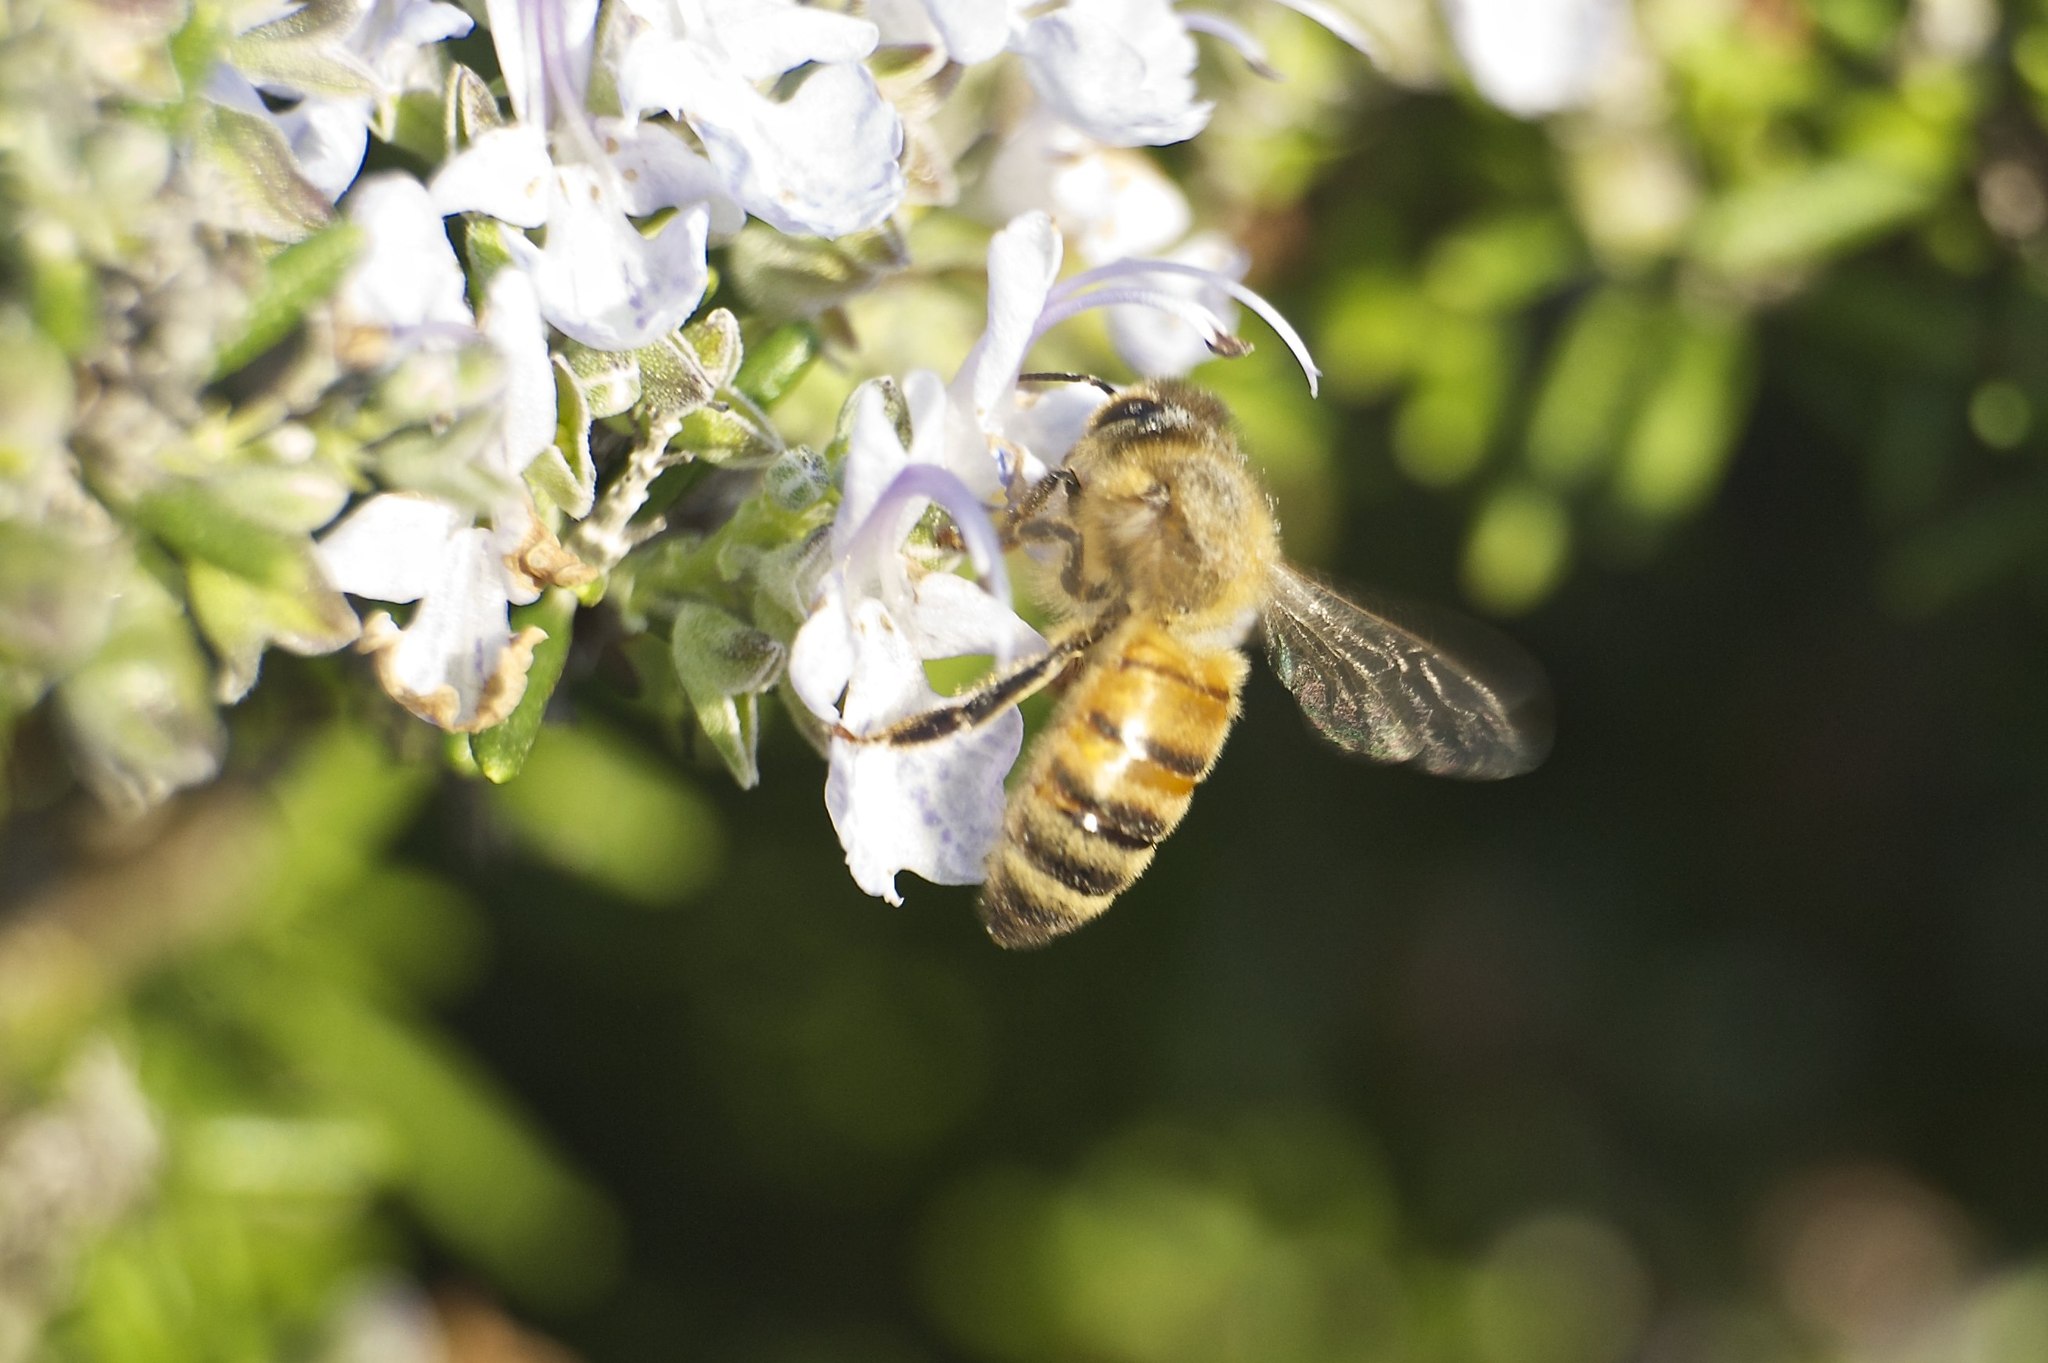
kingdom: Animalia
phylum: Arthropoda
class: Insecta
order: Hymenoptera
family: Apidae
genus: Apis
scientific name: Apis mellifera
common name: Honey bee
